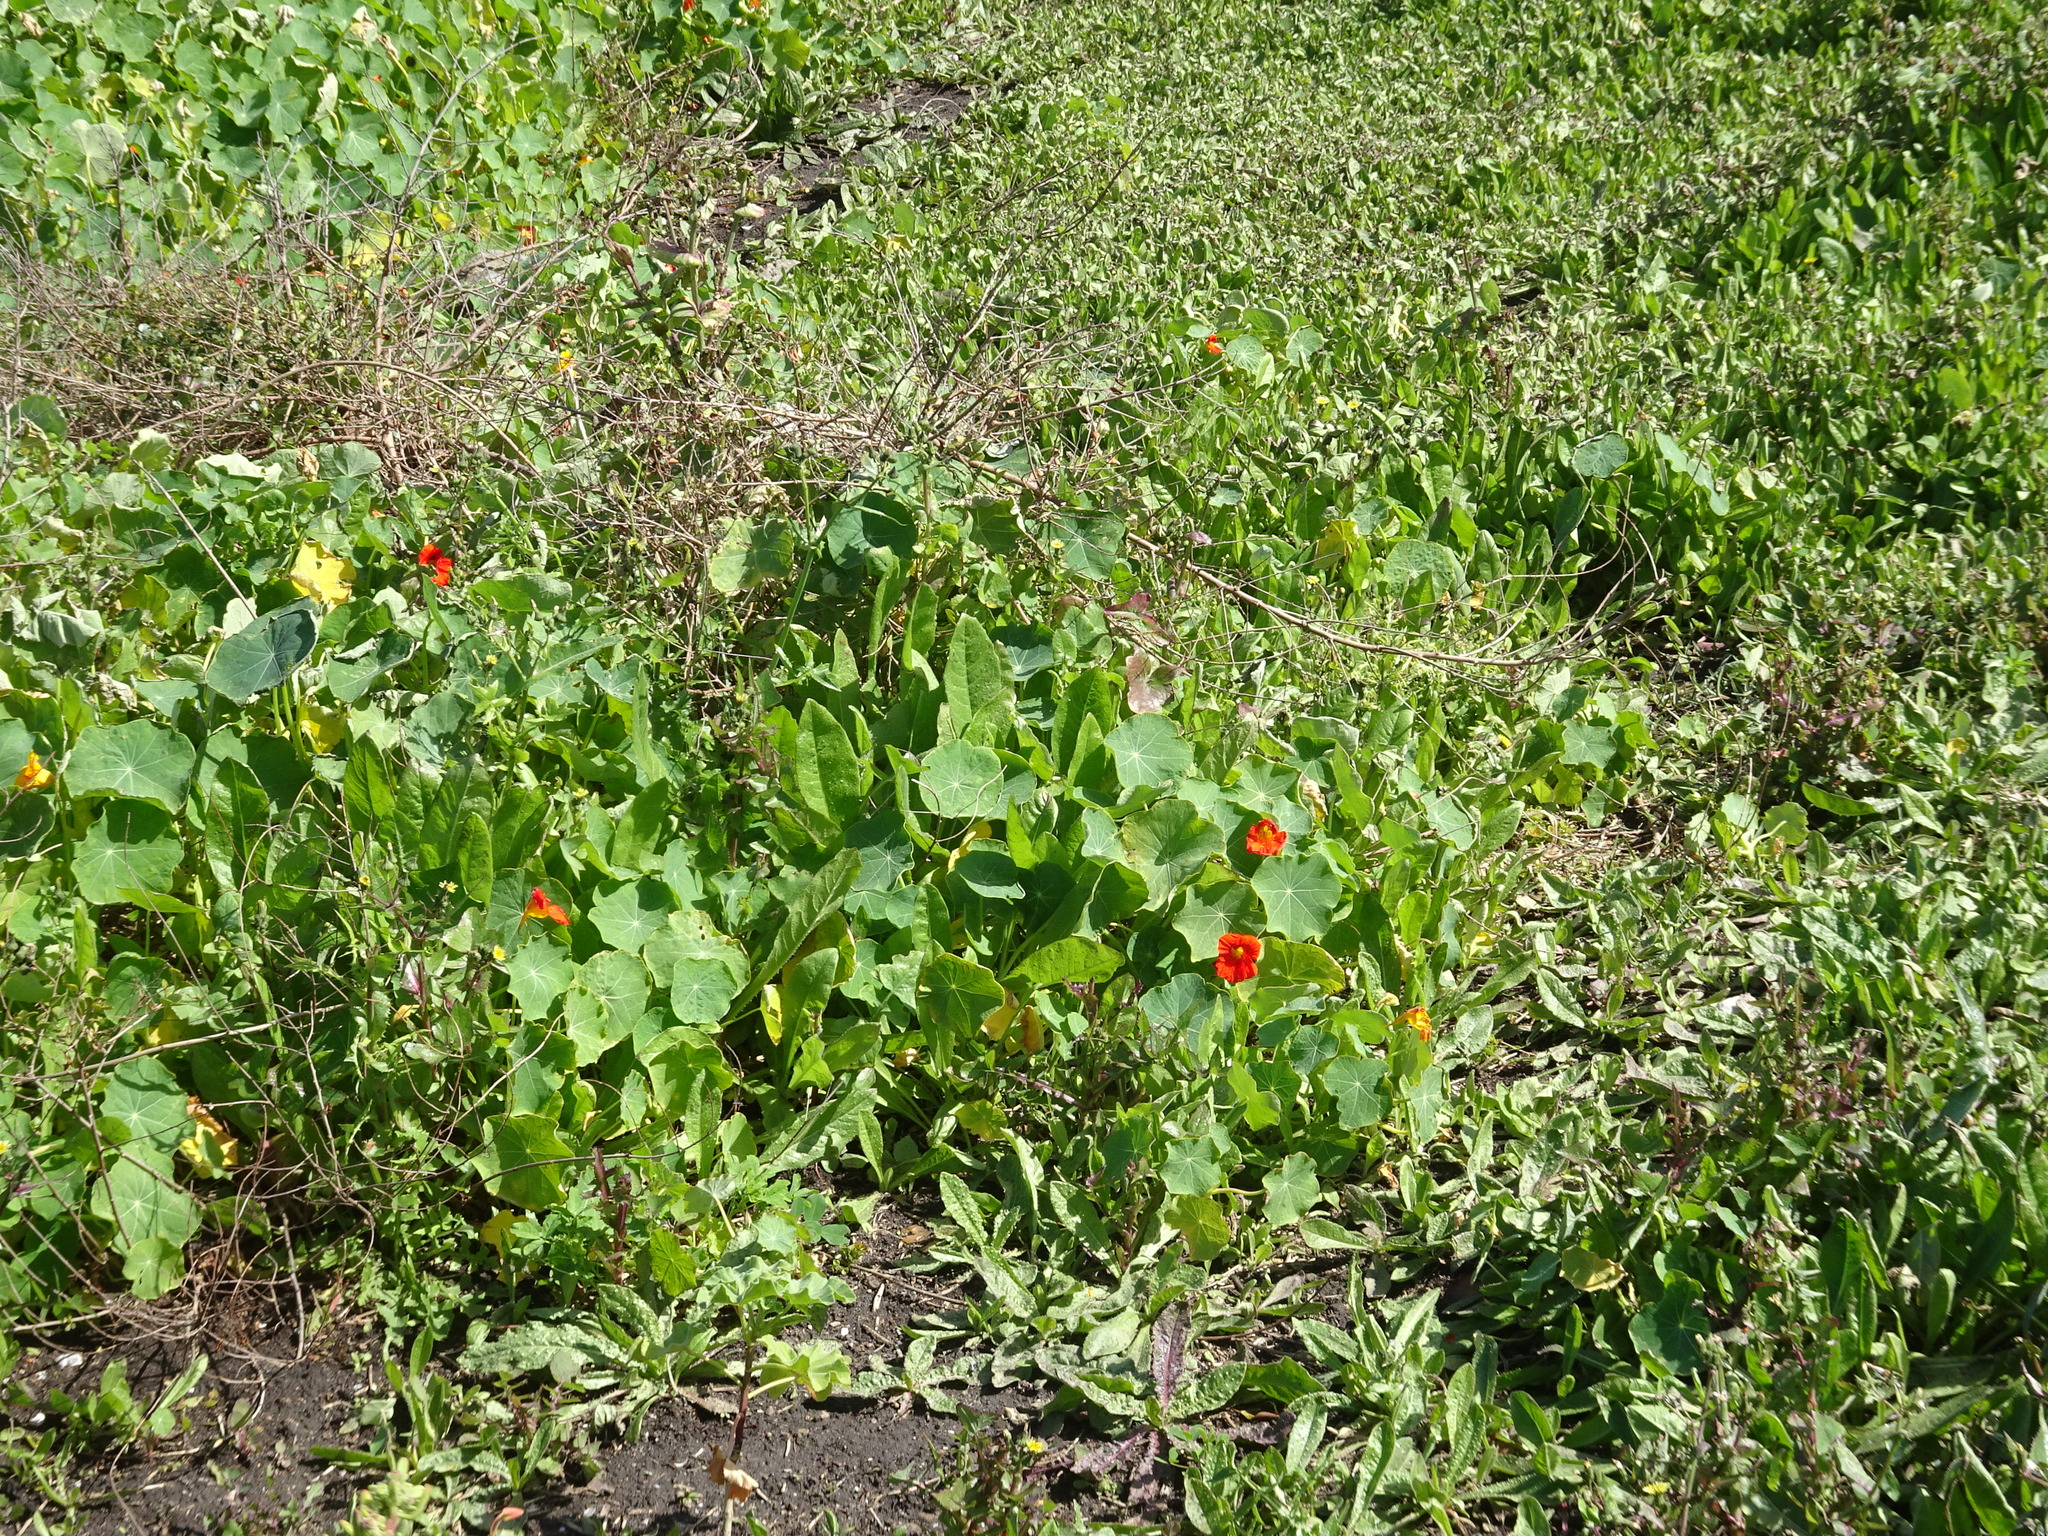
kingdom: Plantae
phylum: Tracheophyta
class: Magnoliopsida
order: Brassicales
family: Tropaeolaceae
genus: Tropaeolum
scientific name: Tropaeolum majus
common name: Nasturtium
